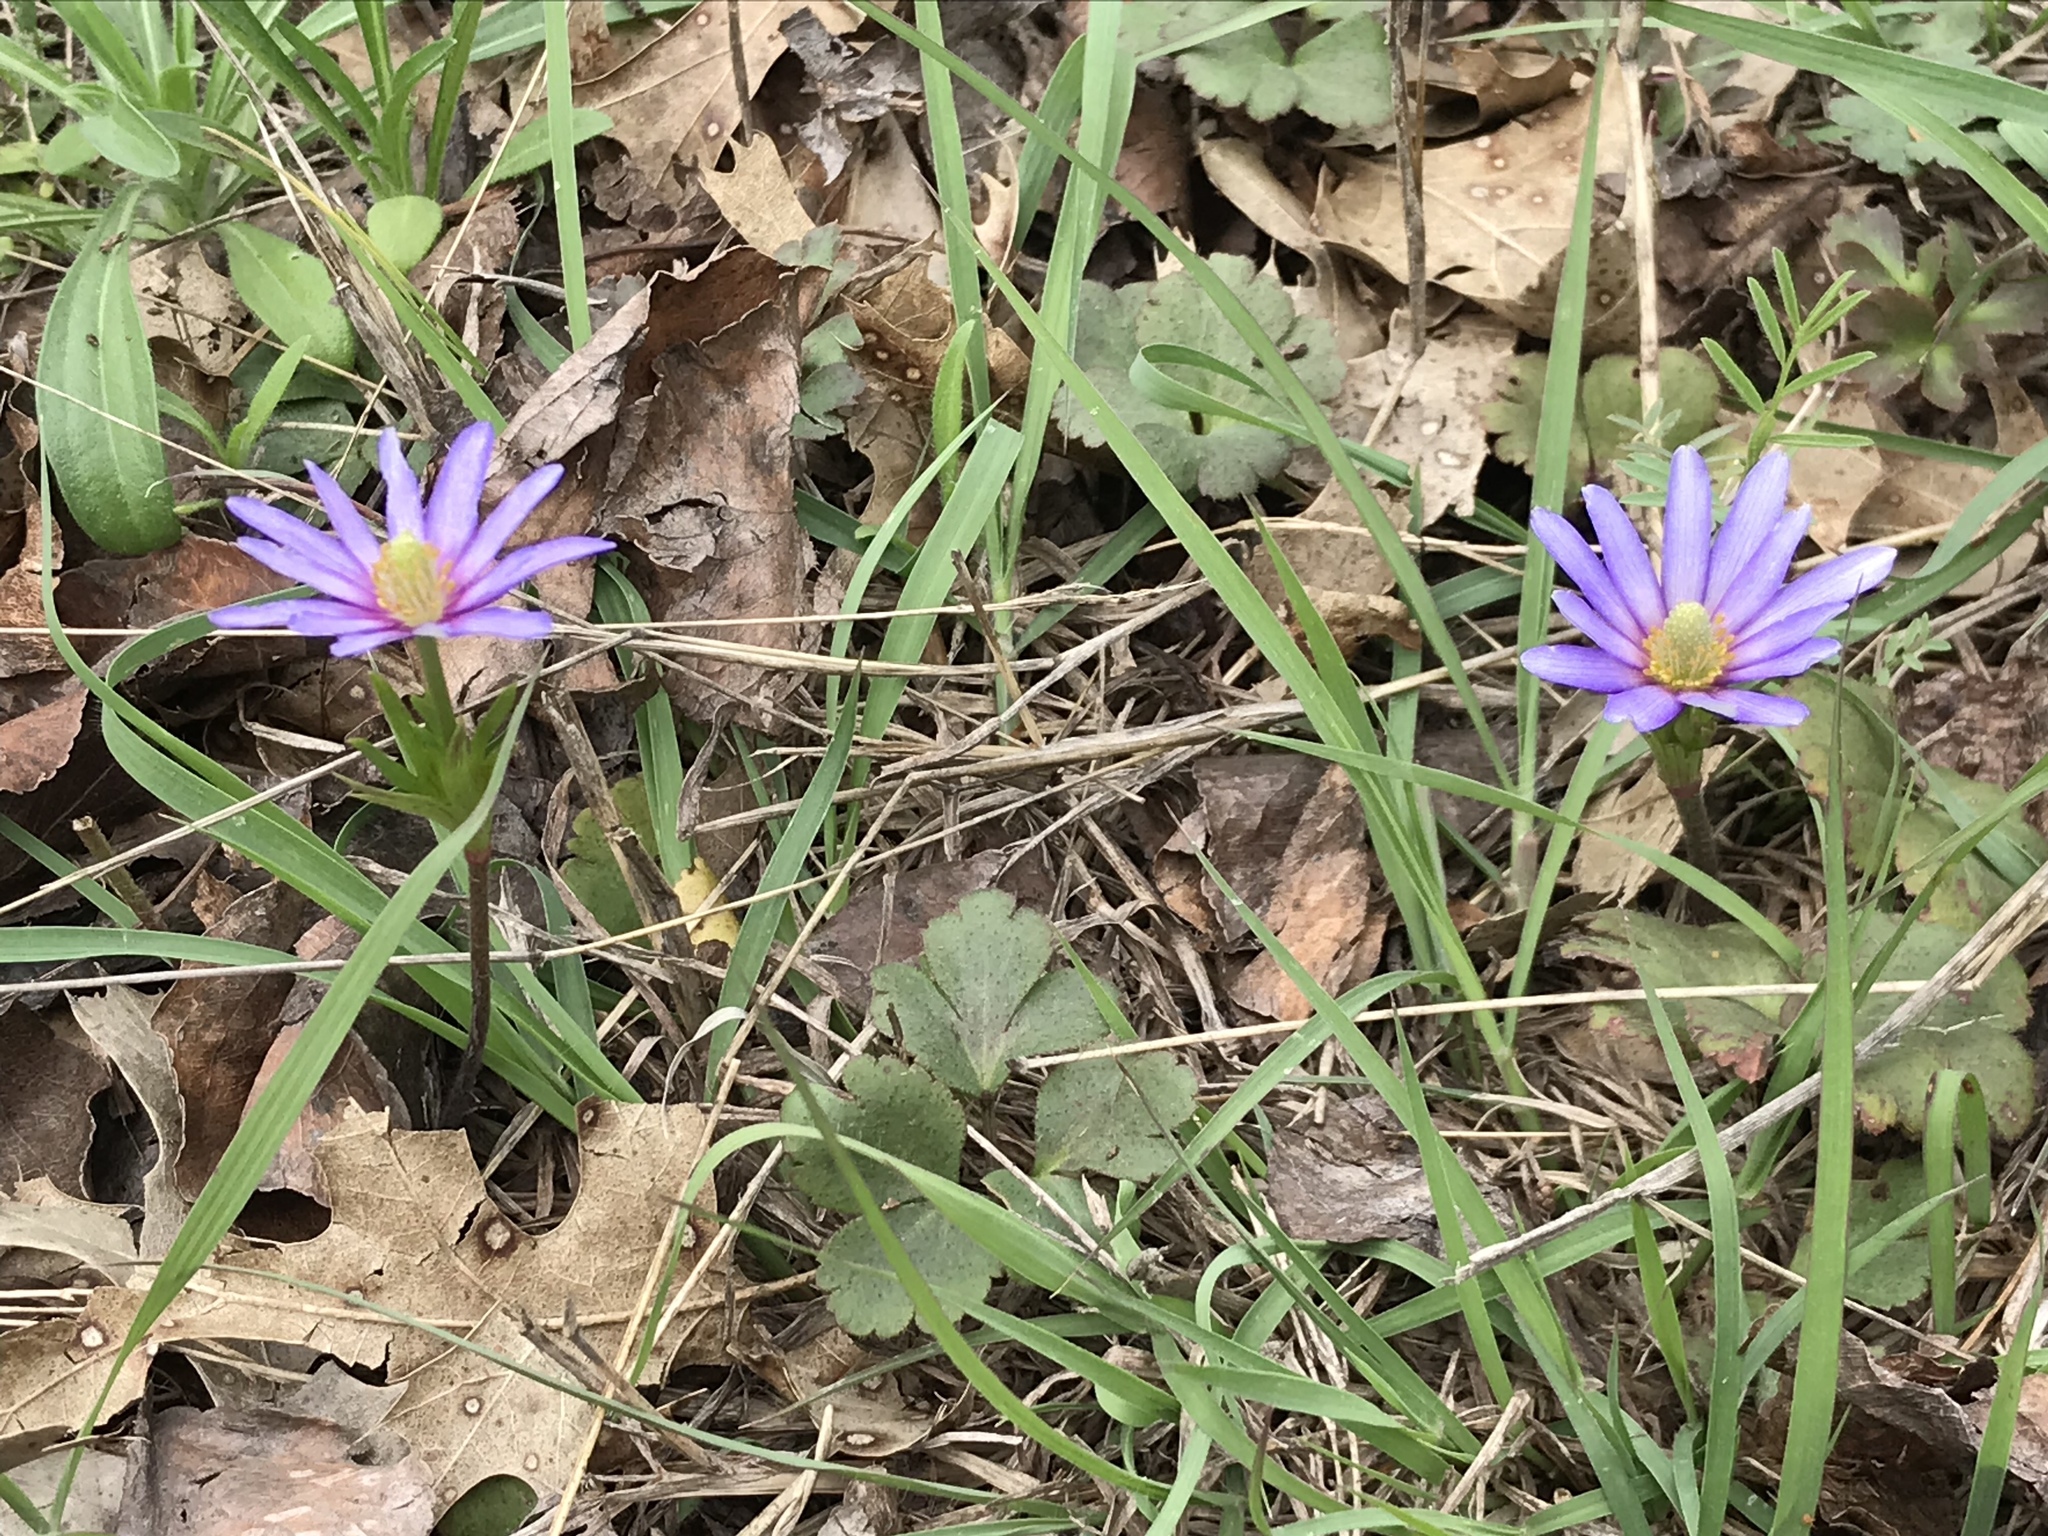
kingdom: Plantae
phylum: Tracheophyta
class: Magnoliopsida
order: Ranunculales
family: Ranunculaceae
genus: Anemone
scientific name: Anemone berlandieri
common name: Ten-petal anemone
